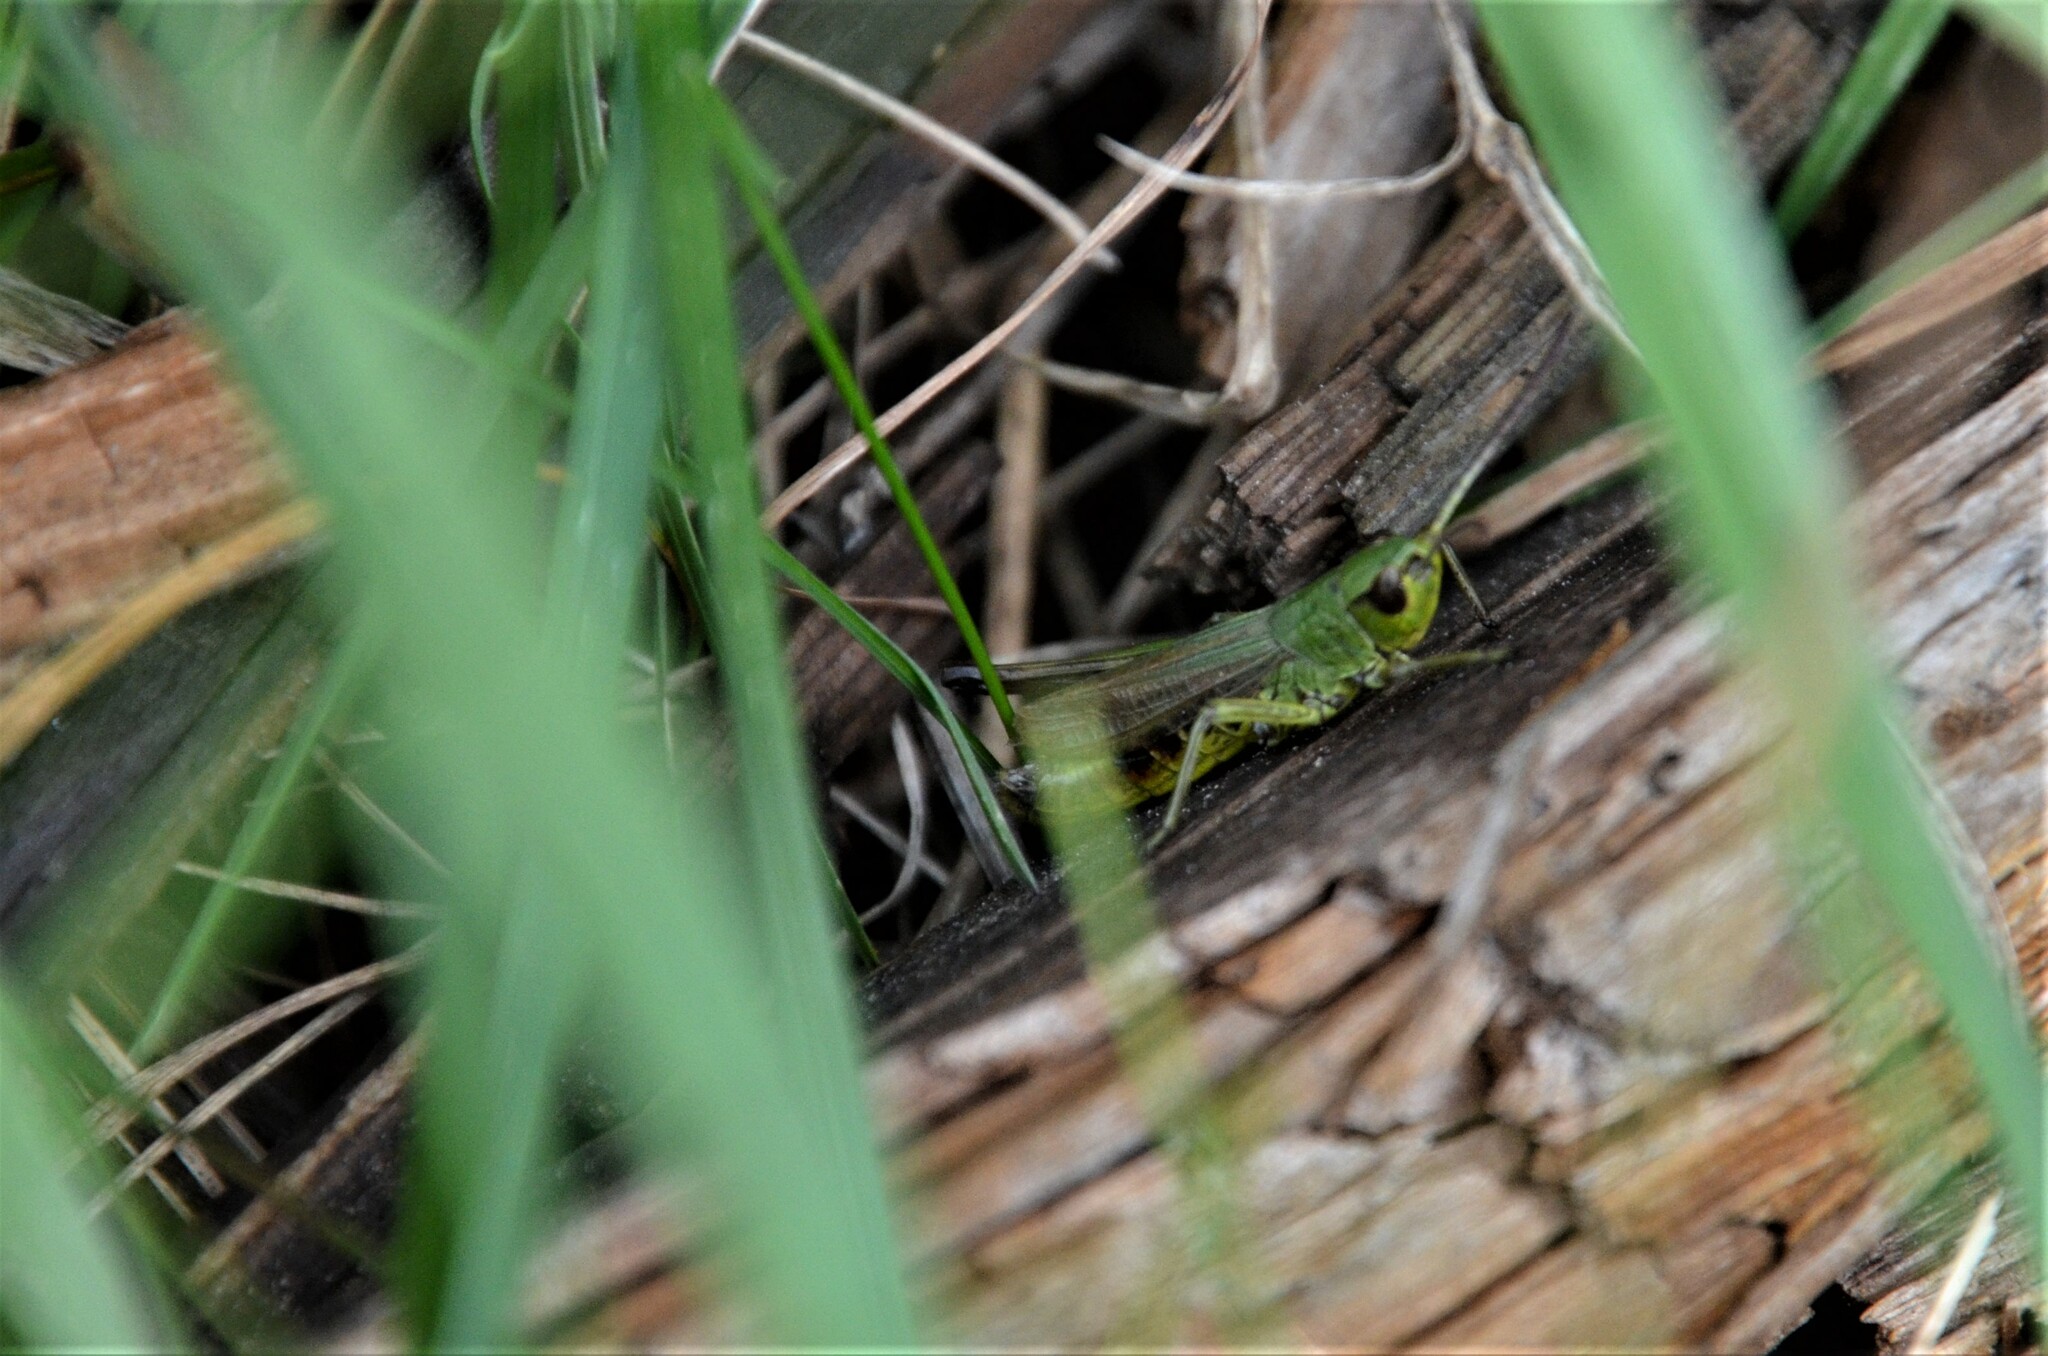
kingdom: Animalia
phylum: Arthropoda
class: Insecta
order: Orthoptera
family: Acrididae
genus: Pseudochorthippus
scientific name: Pseudochorthippus parallelus
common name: Meadow grasshopper
